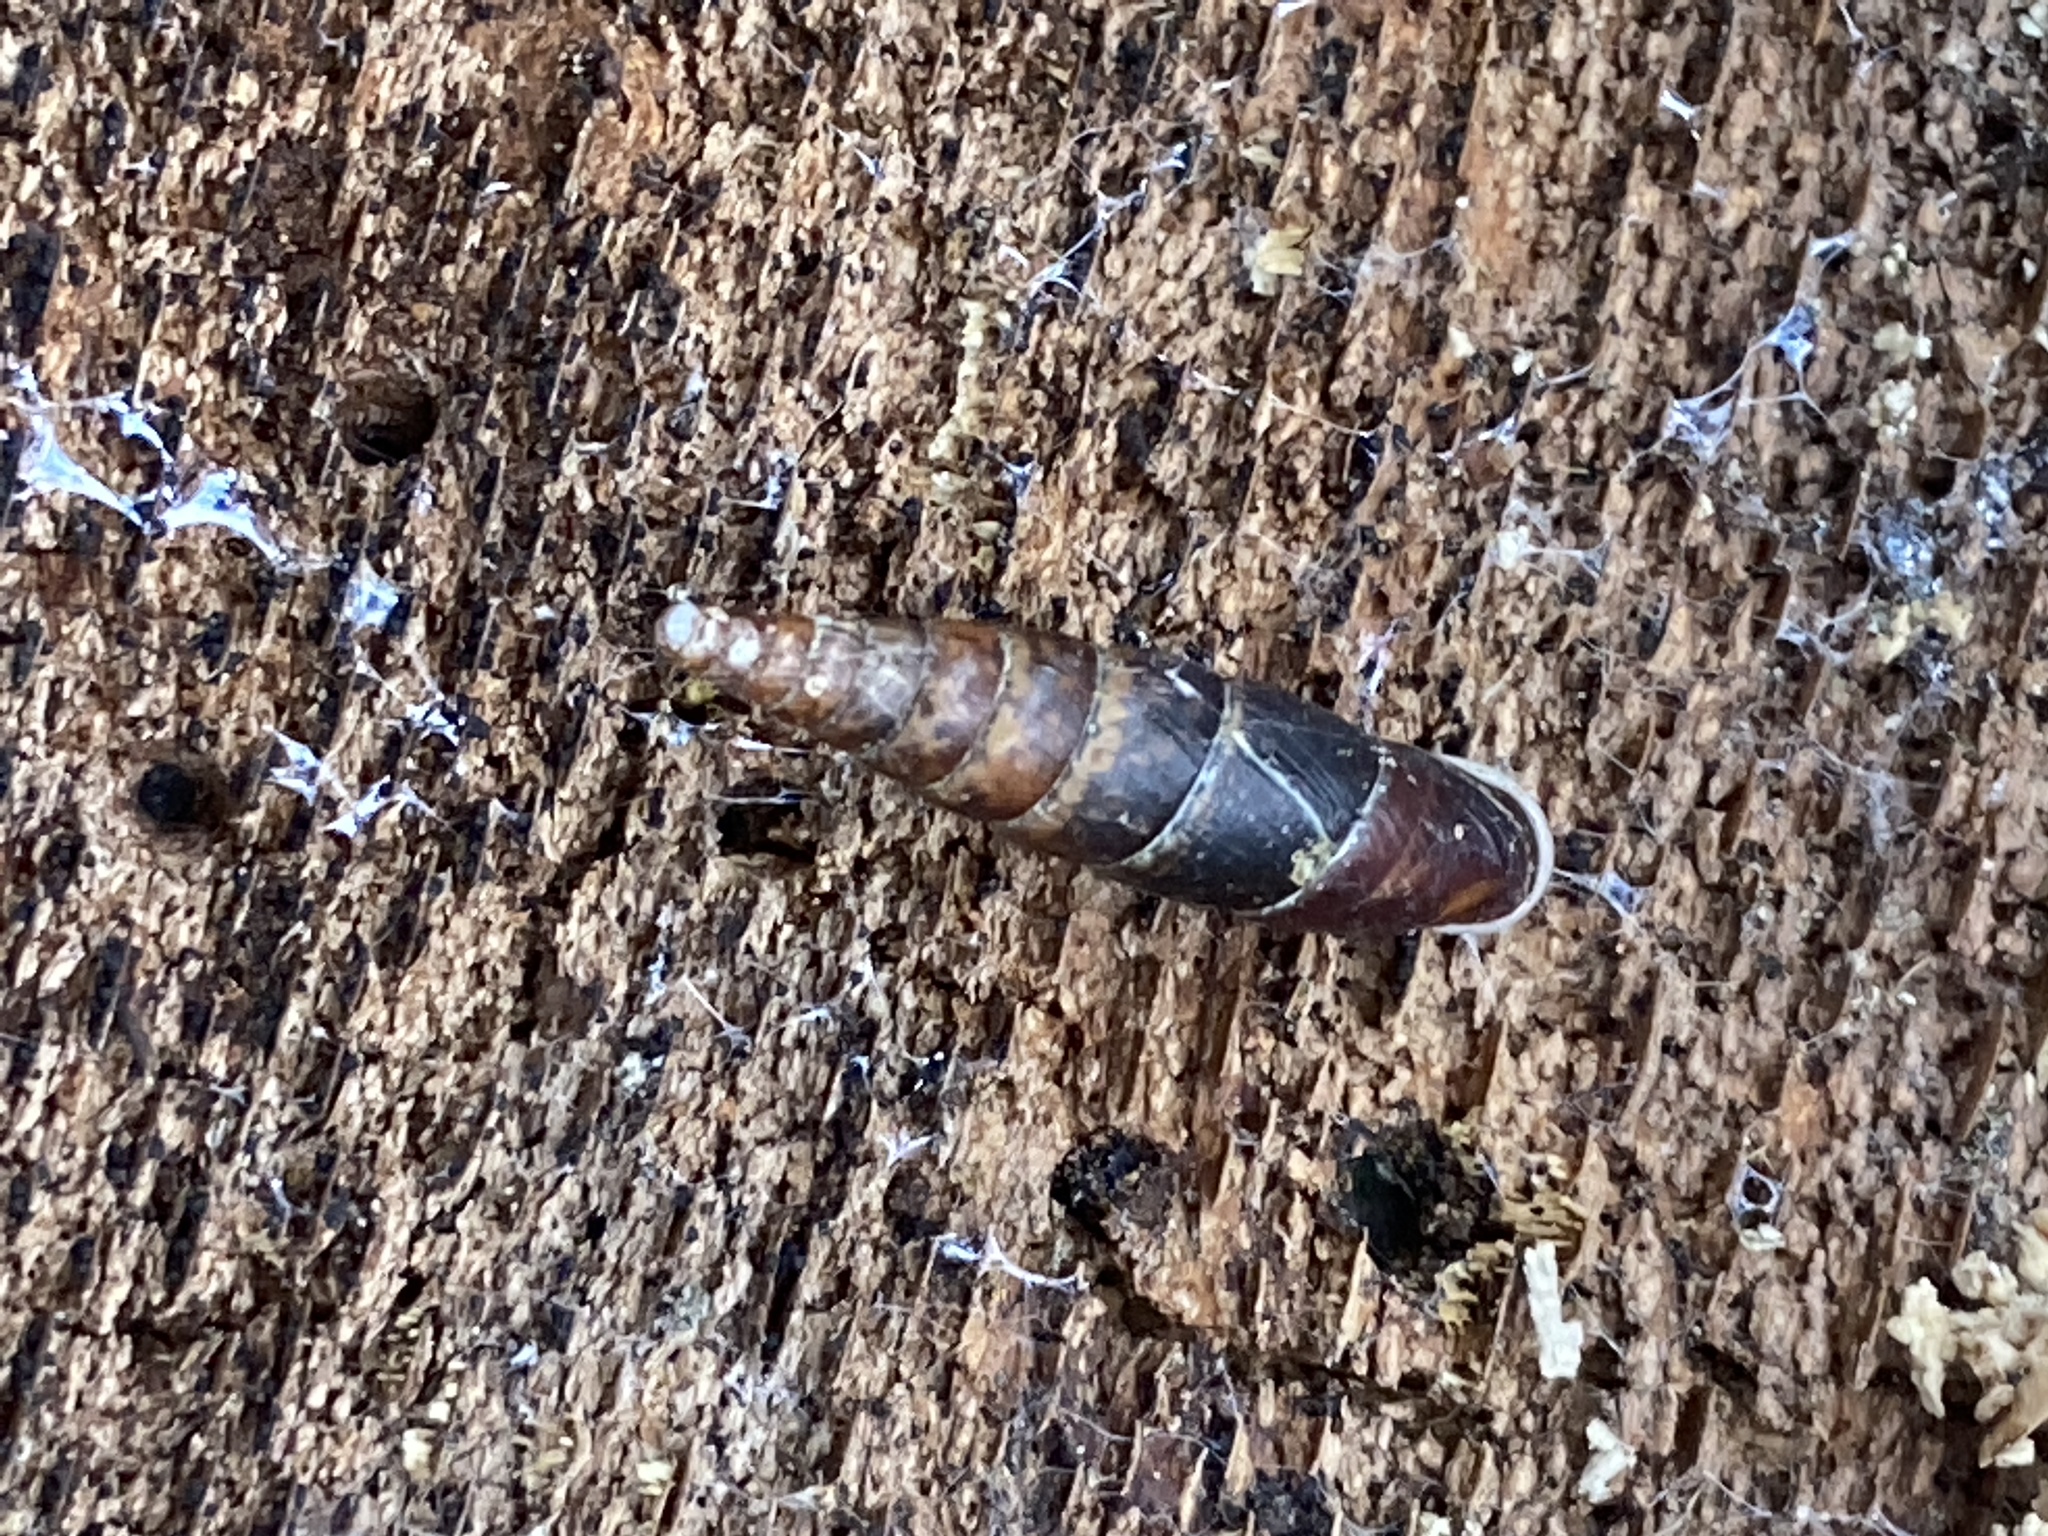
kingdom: Animalia
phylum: Mollusca
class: Gastropoda
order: Stylommatophora
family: Clausiliidae
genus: Cochlodina
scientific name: Cochlodina laminata
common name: Plaited door snail
